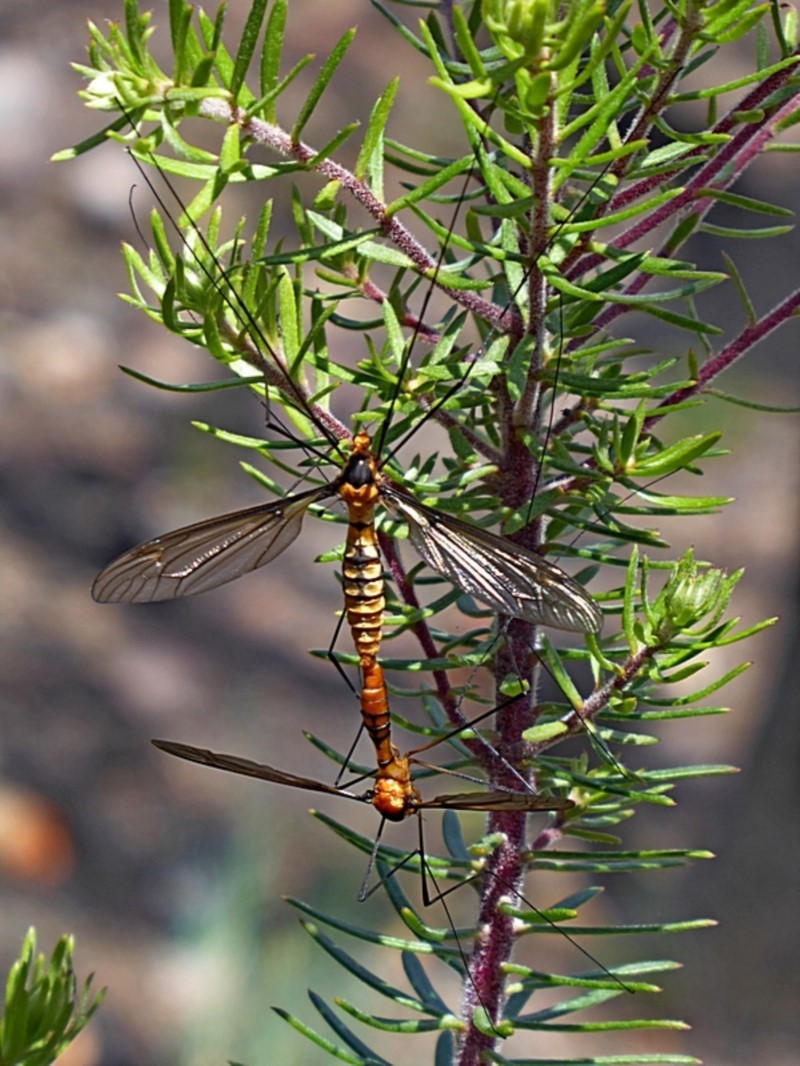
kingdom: Animalia
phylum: Arthropoda
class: Insecta
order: Diptera
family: Tipulidae
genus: Leptotarsus
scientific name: Leptotarsus clavatus
